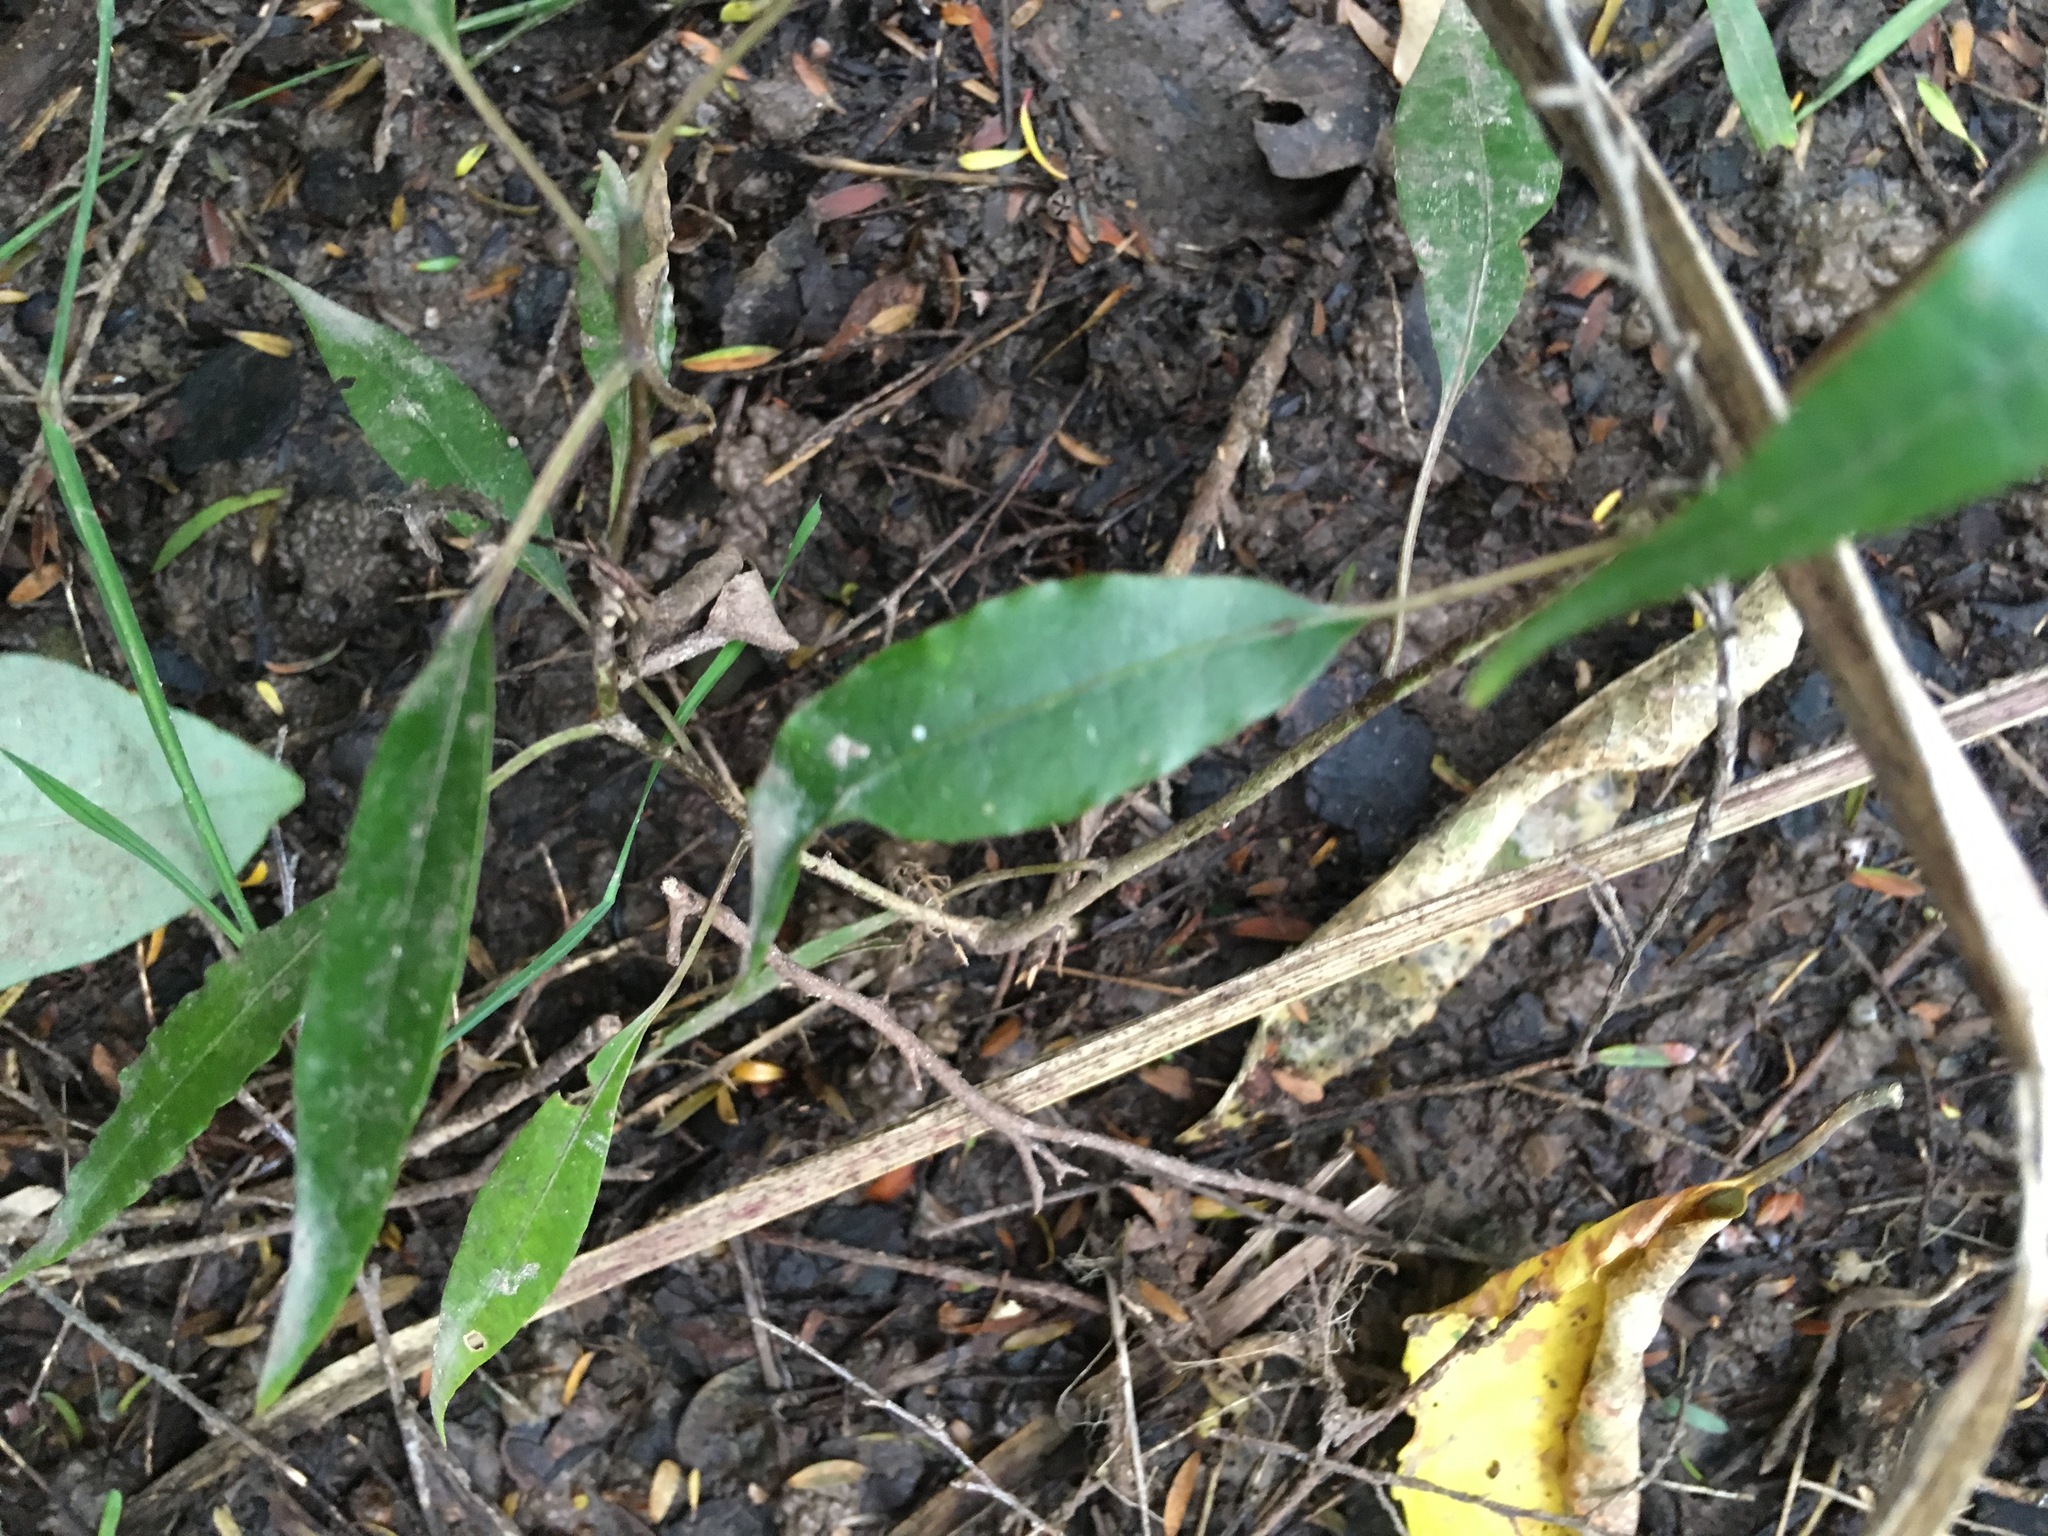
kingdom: Plantae
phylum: Tracheophyta
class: Magnoliopsida
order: Malpighiales
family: Passifloraceae
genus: Passiflora
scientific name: Passiflora tetrandra
